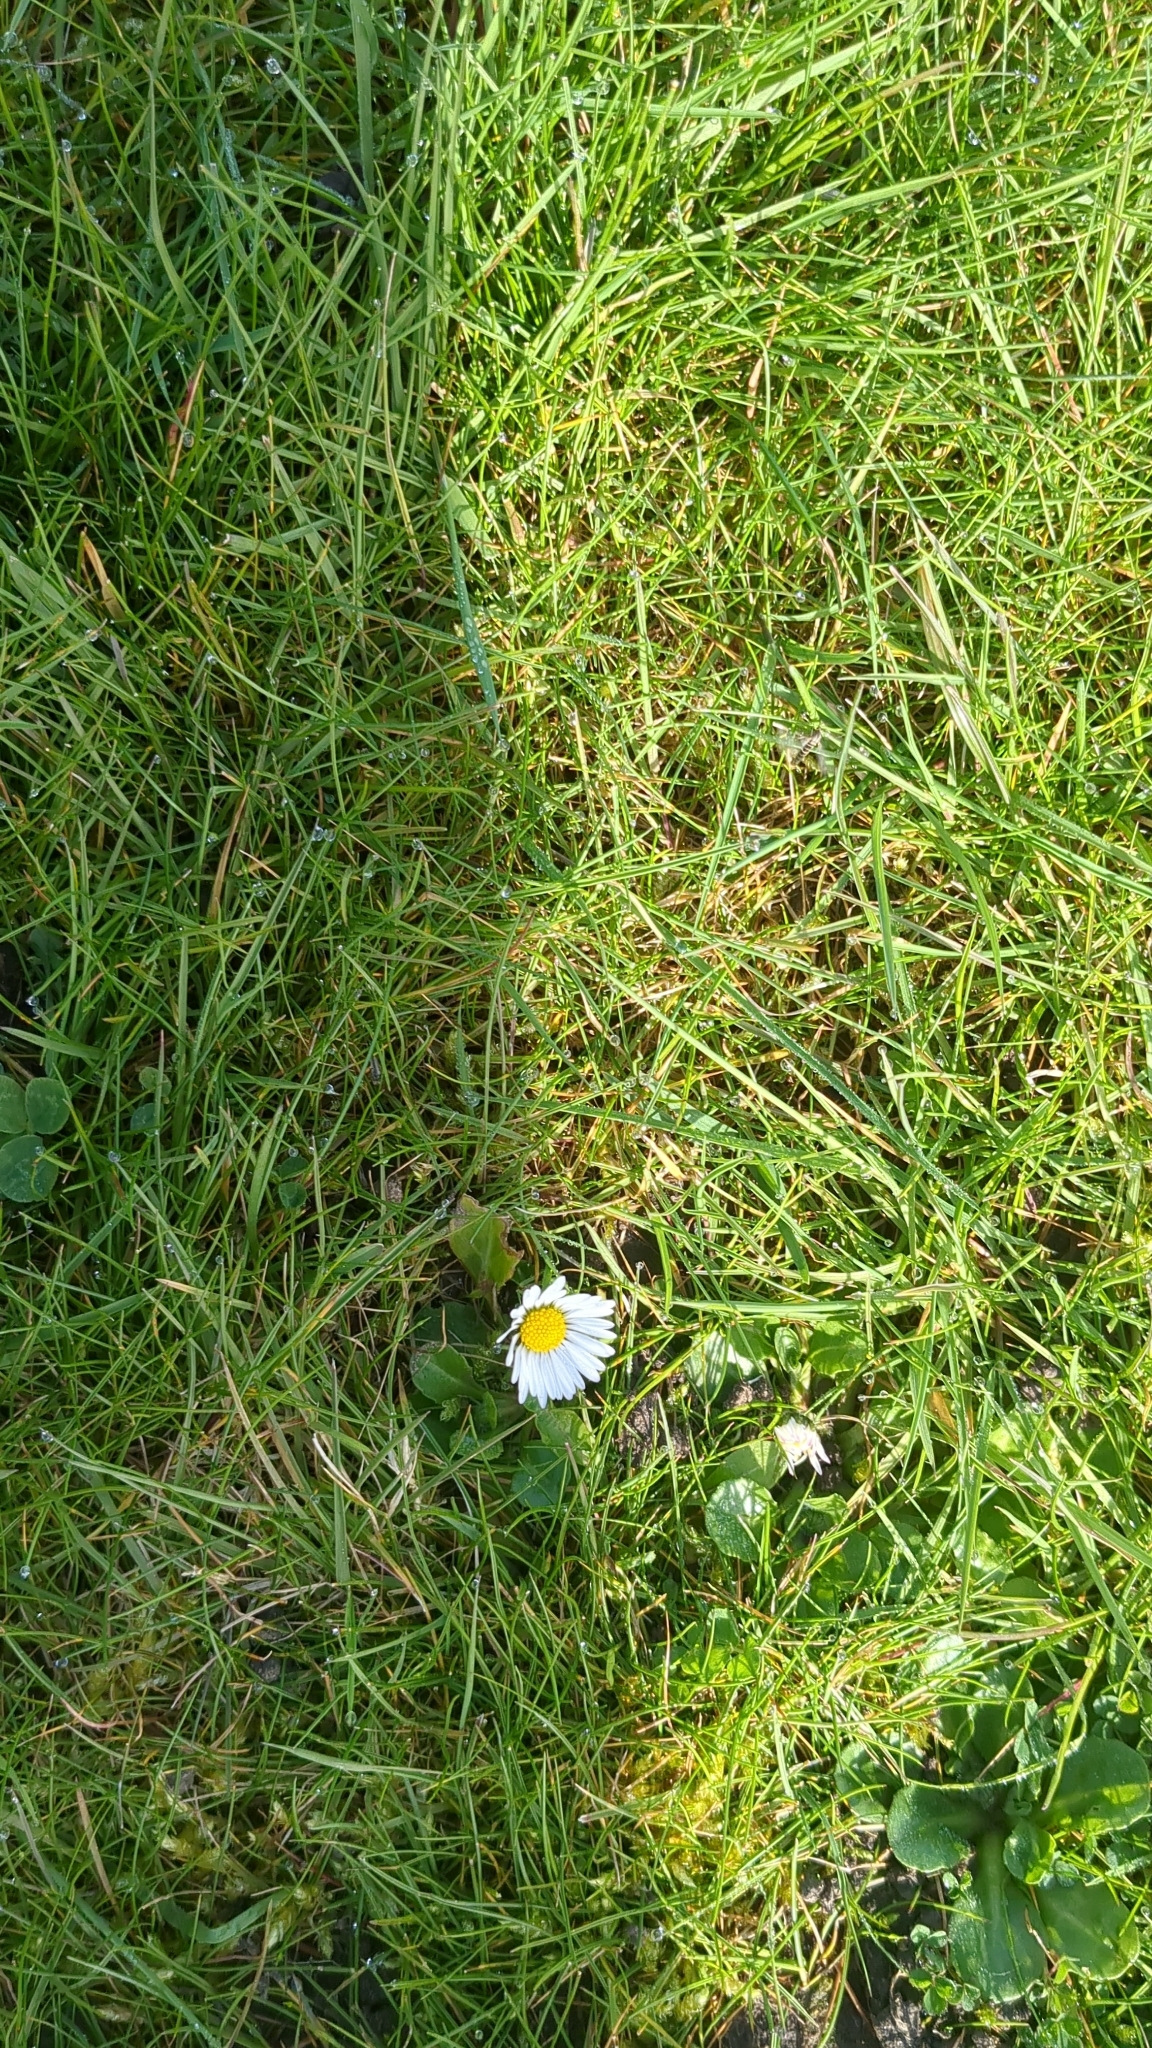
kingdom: Plantae
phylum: Tracheophyta
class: Magnoliopsida
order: Asterales
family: Asteraceae
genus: Bellis
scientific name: Bellis perennis
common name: Lawndaisy
